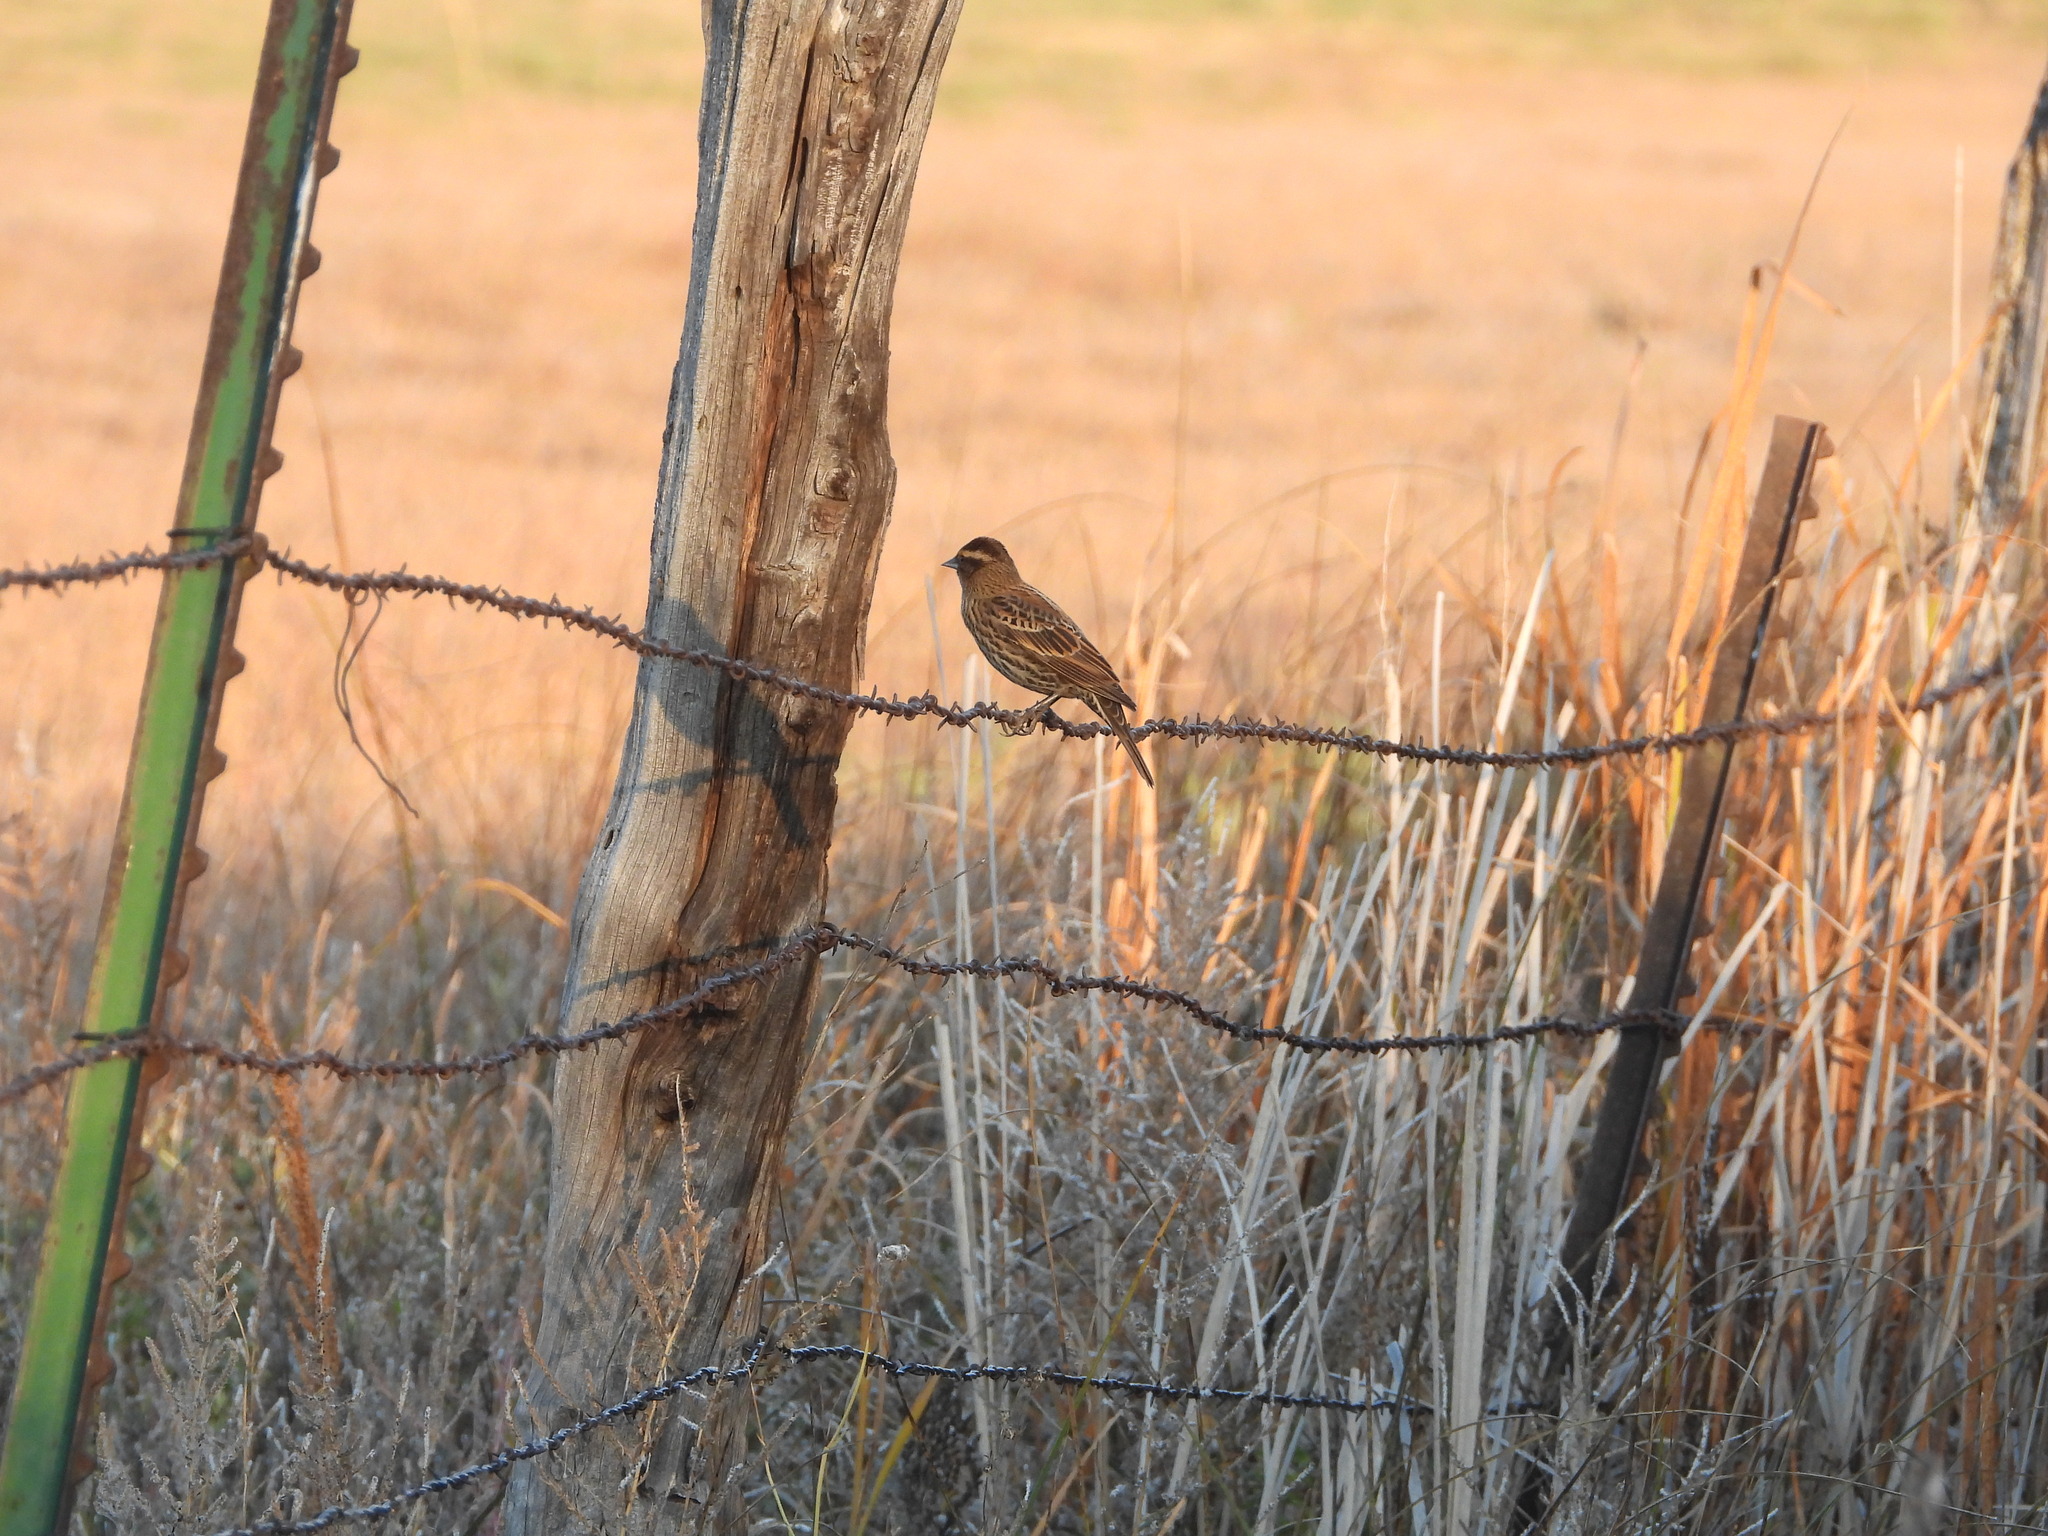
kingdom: Animalia
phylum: Chordata
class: Aves
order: Passeriformes
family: Icteridae
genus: Agelaius
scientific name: Agelaius phoeniceus
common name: Red-winged blackbird
